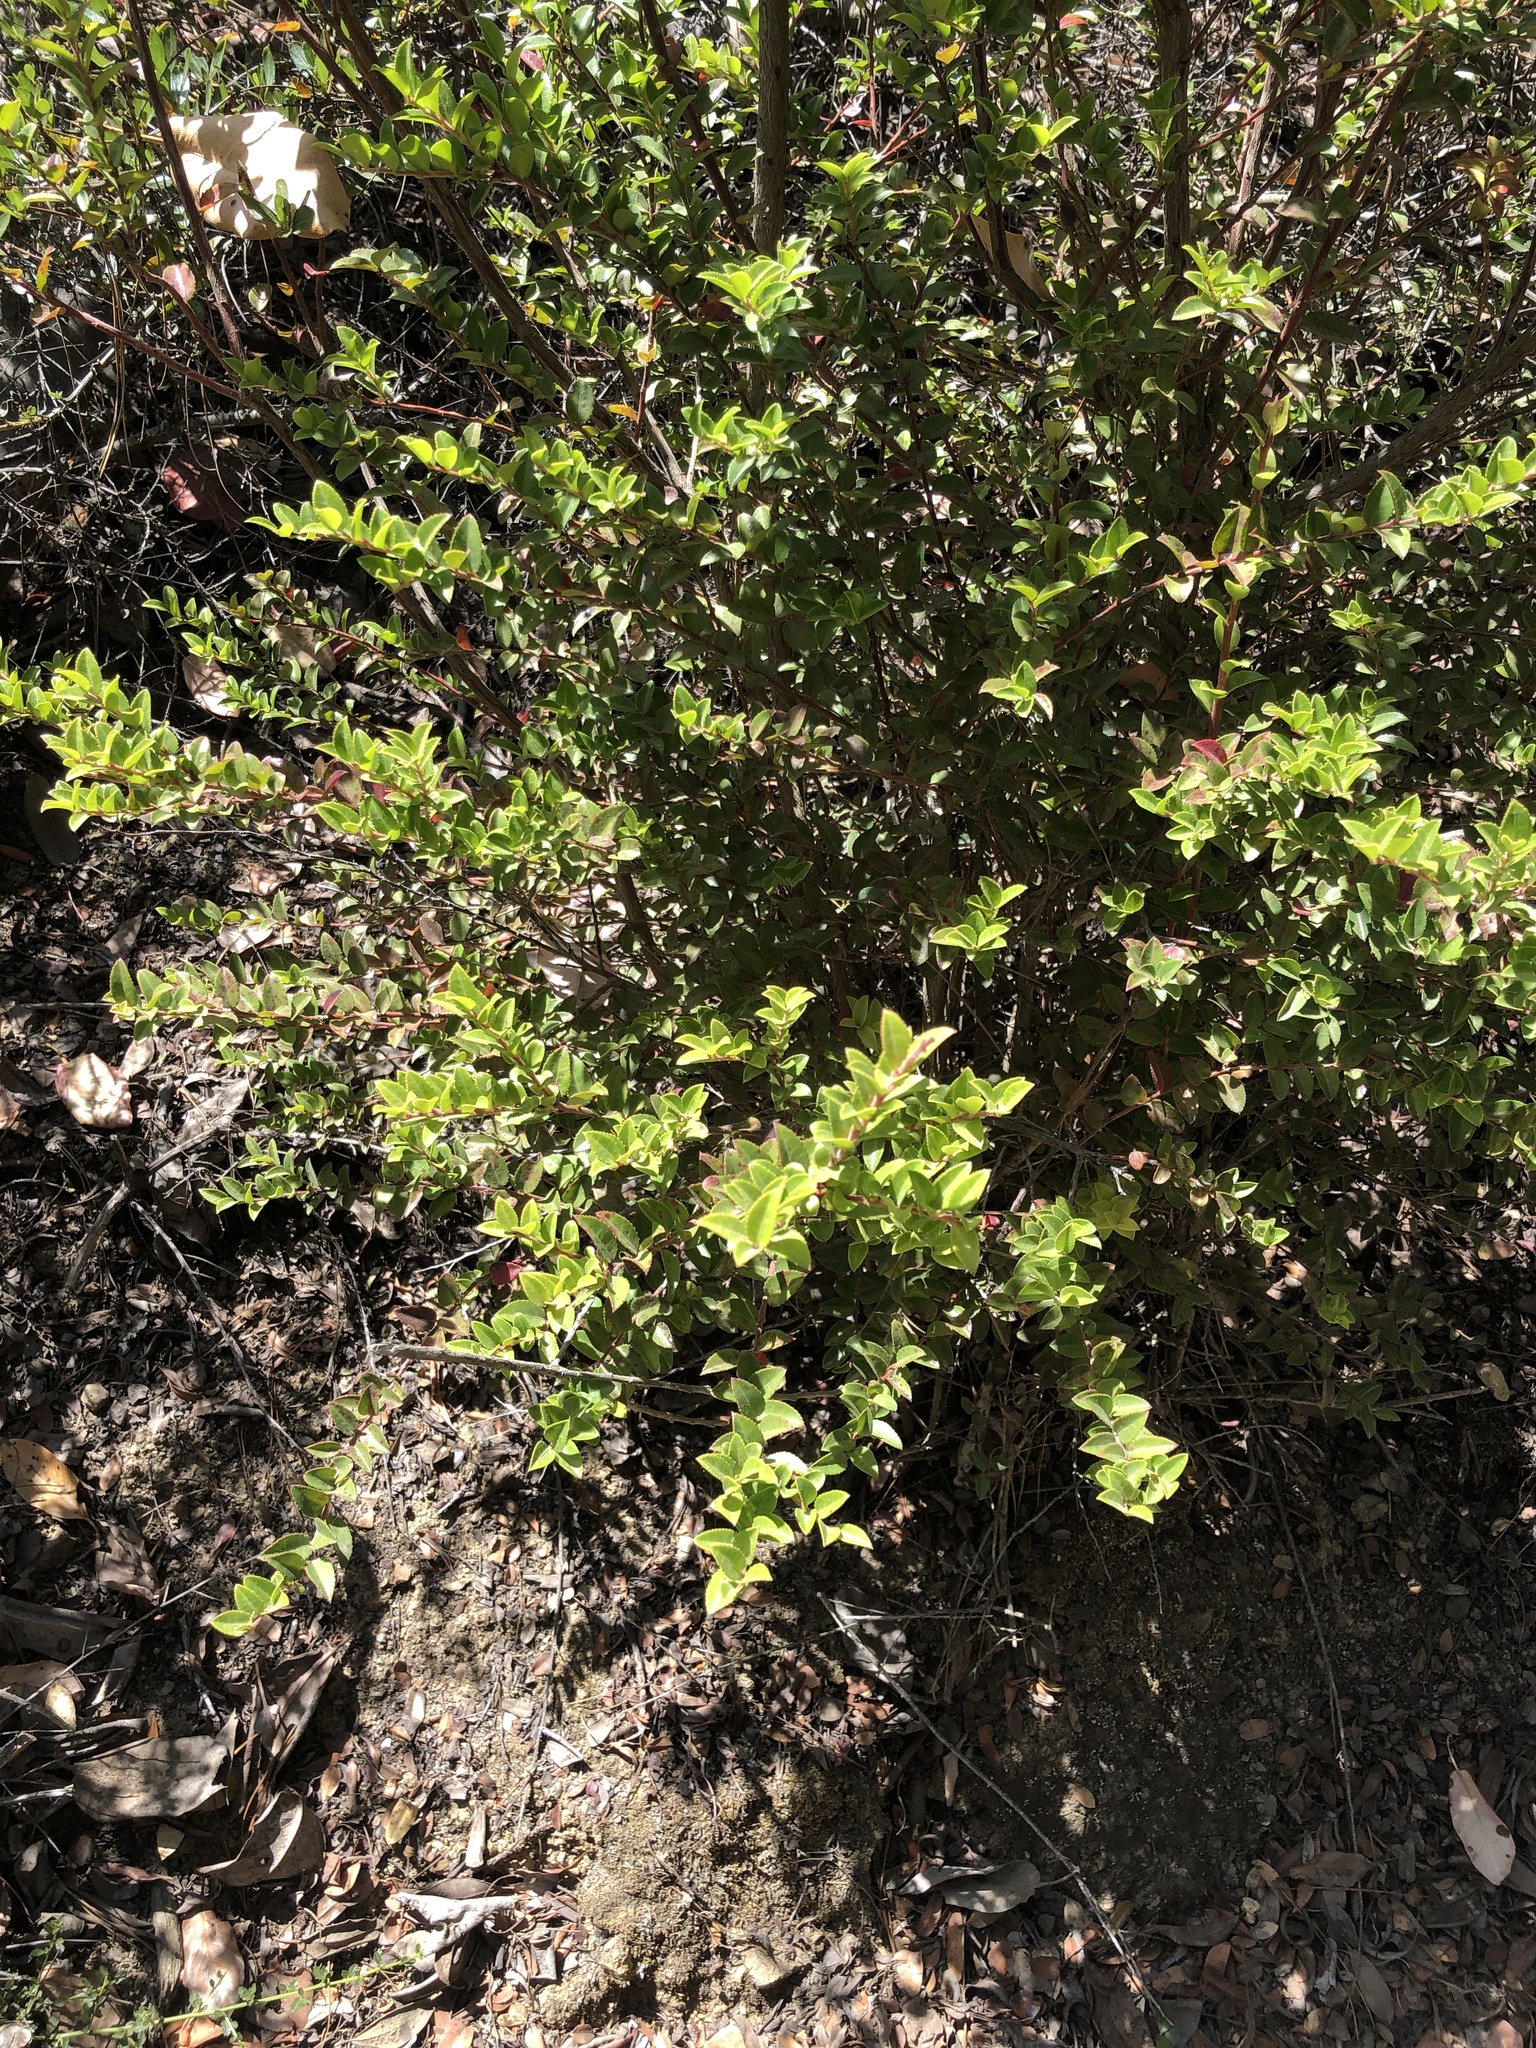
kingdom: Plantae
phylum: Tracheophyta
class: Magnoliopsida
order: Ericales
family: Ericaceae
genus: Vaccinium
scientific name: Vaccinium ovatum
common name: California-huckleberry
